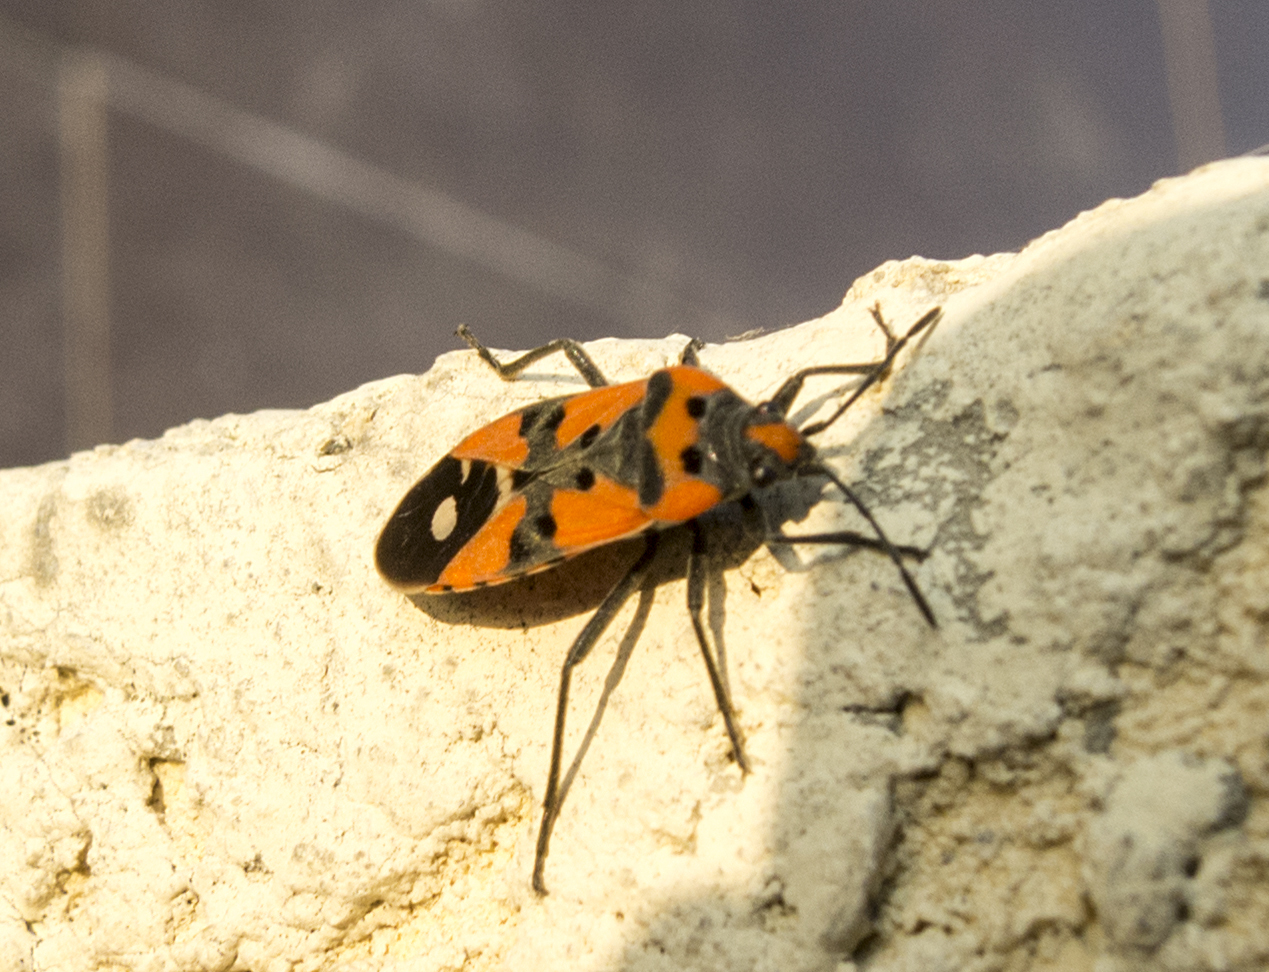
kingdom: Animalia
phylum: Arthropoda
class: Insecta
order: Hemiptera
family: Lygaeidae
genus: Lygaeus
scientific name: Lygaeus equestris
